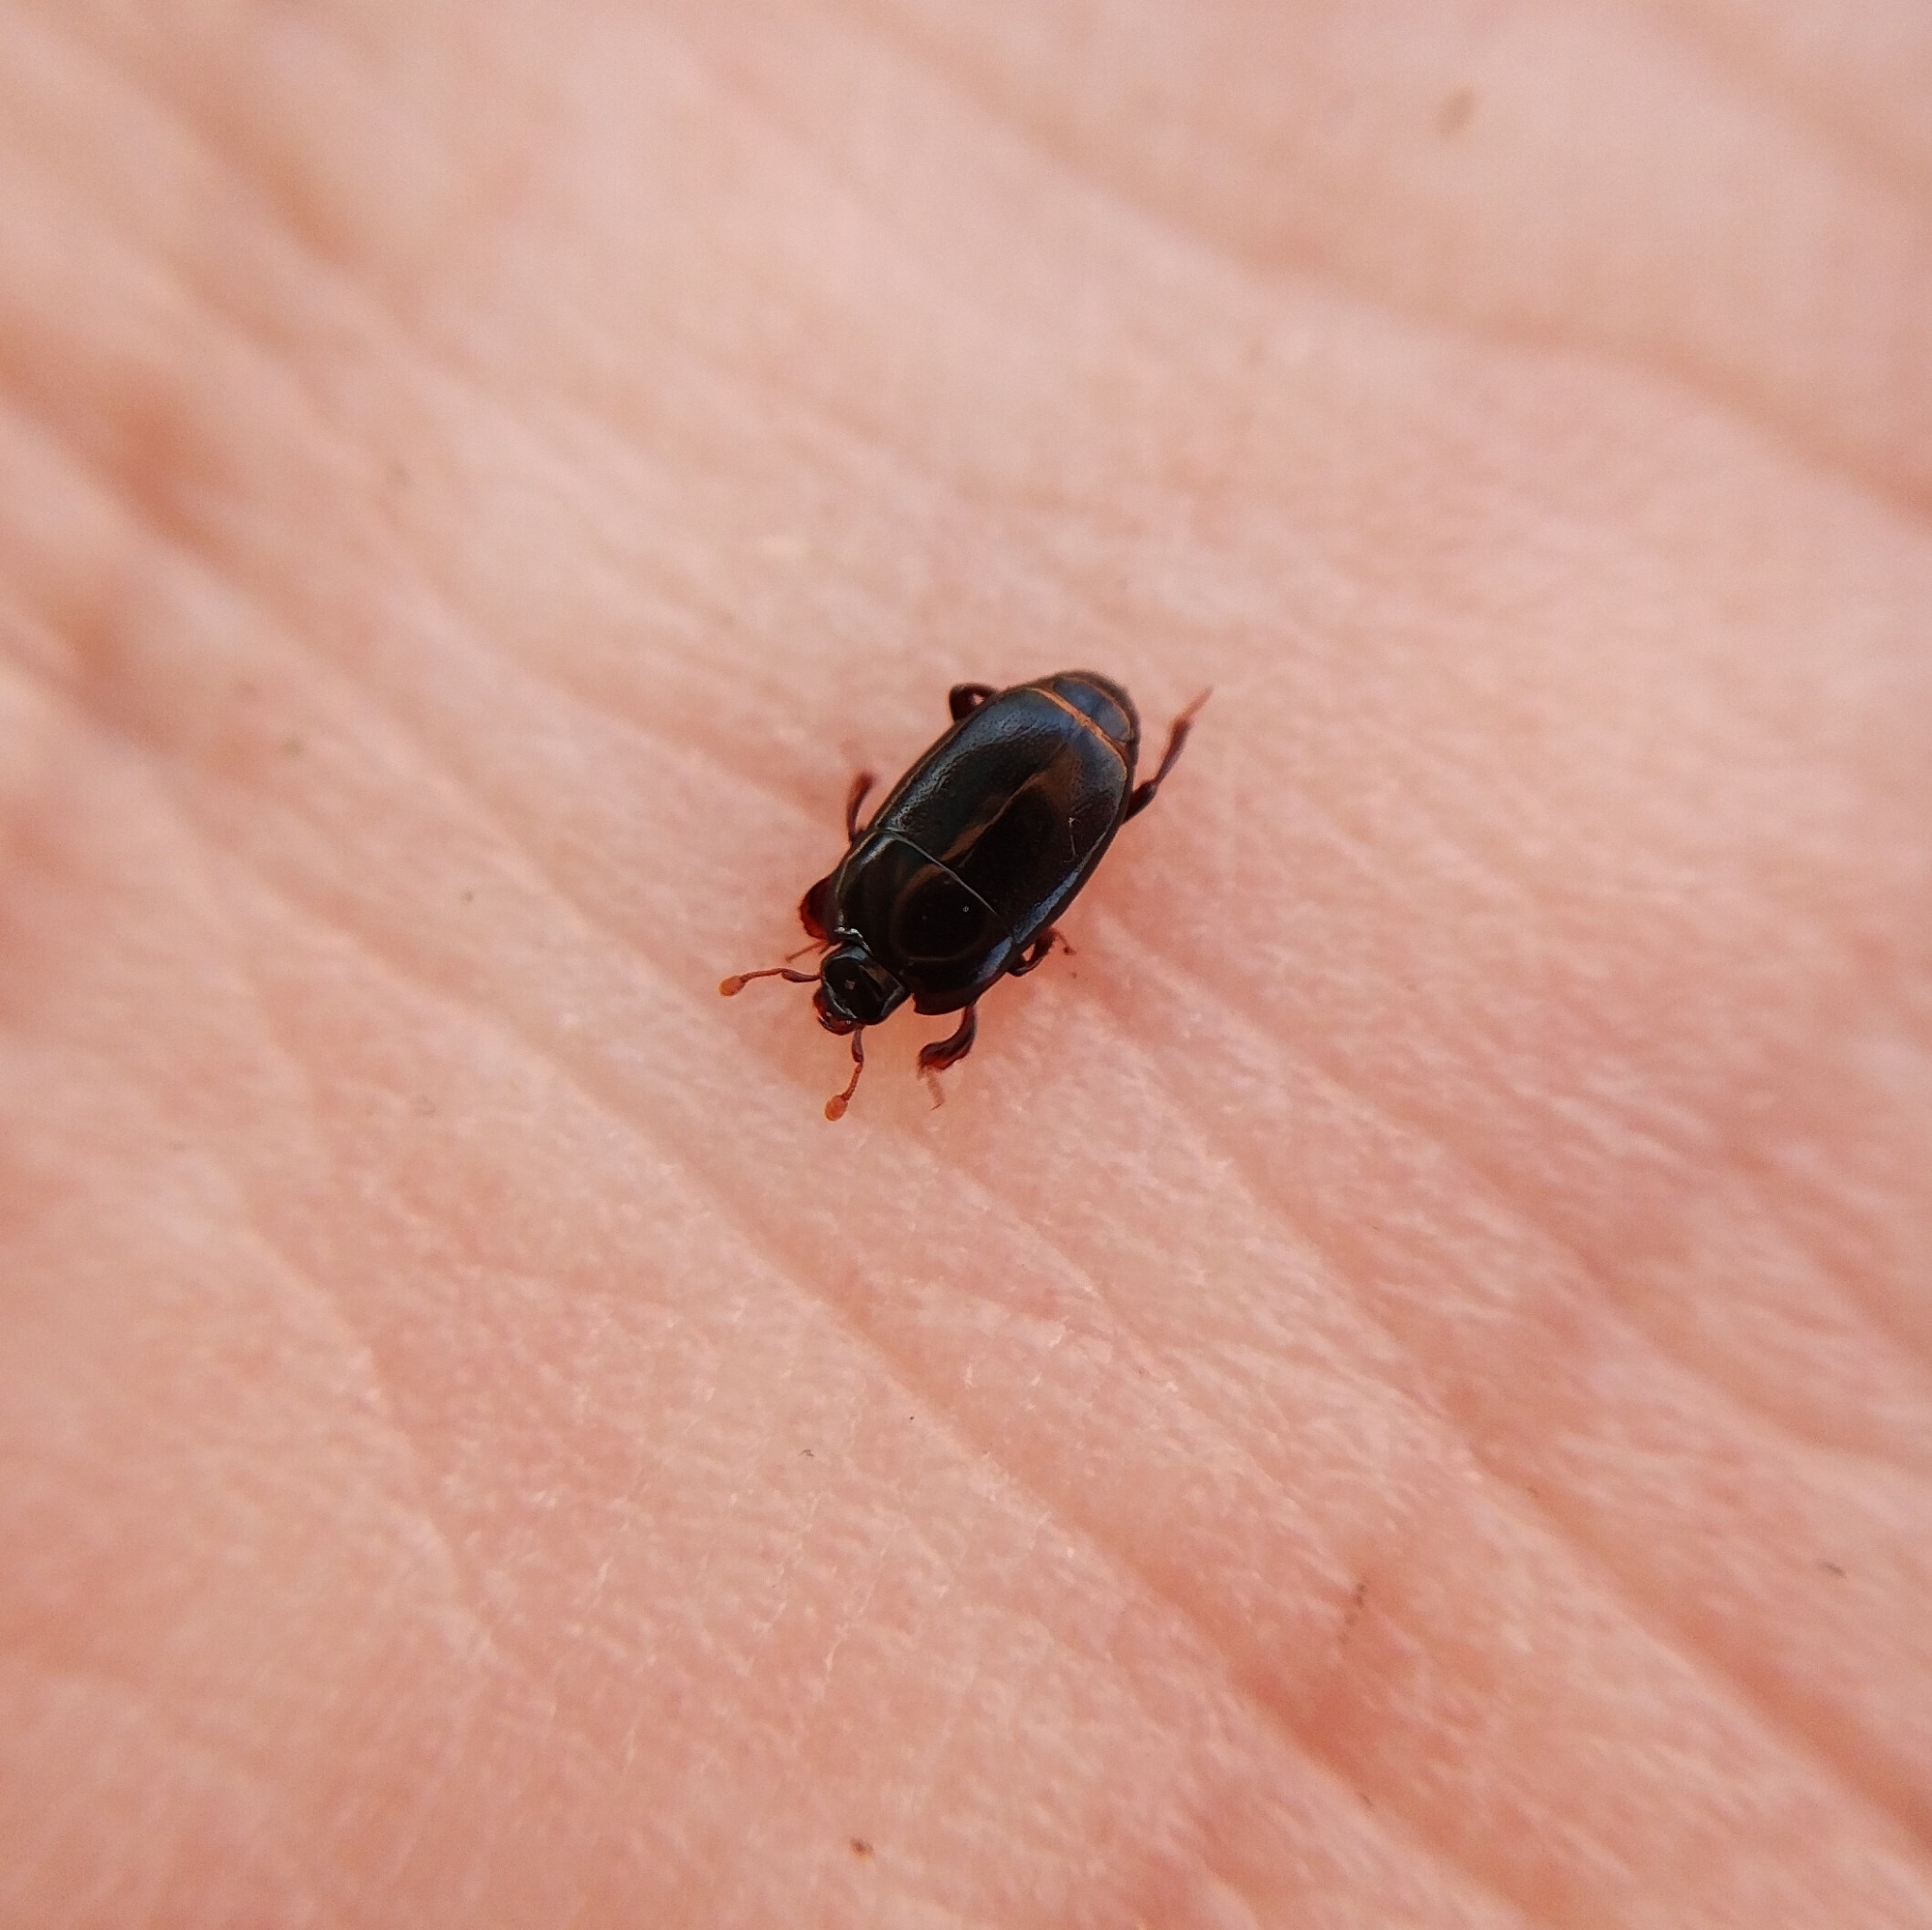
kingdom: Animalia
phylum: Arthropoda
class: Insecta
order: Coleoptera
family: Histeridae
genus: Platylomalus
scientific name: Platylomalus complanatus
